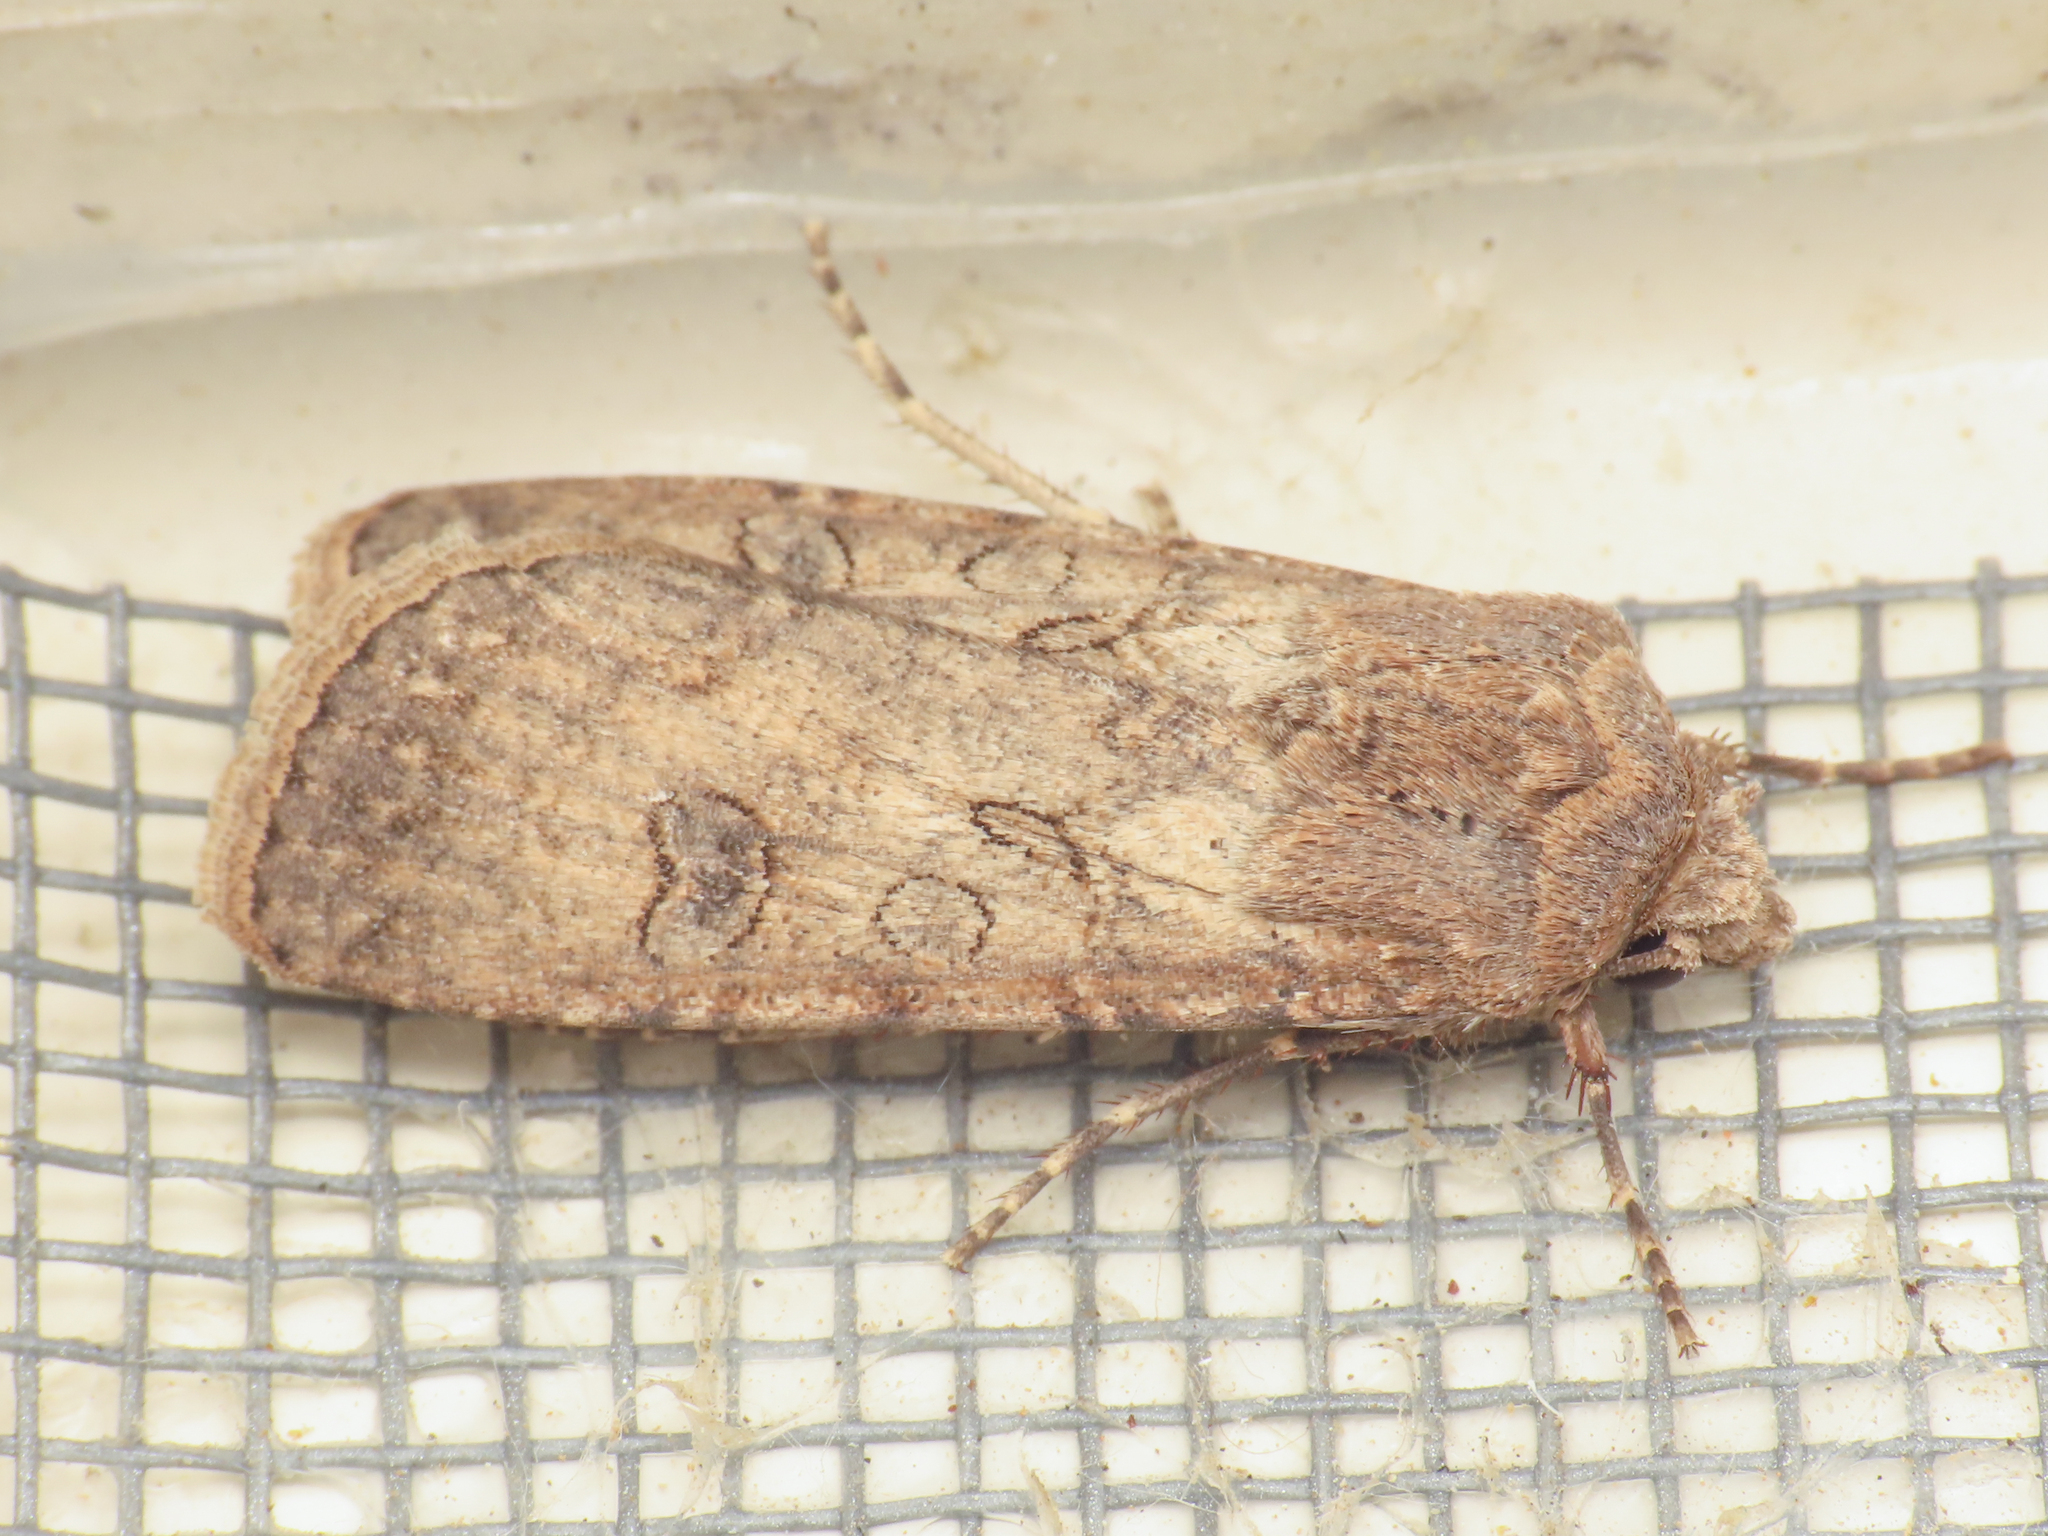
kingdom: Animalia
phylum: Arthropoda
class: Insecta
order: Lepidoptera
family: Noctuidae
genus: Agrotis
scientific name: Agrotis segetum
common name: Turnip moth
